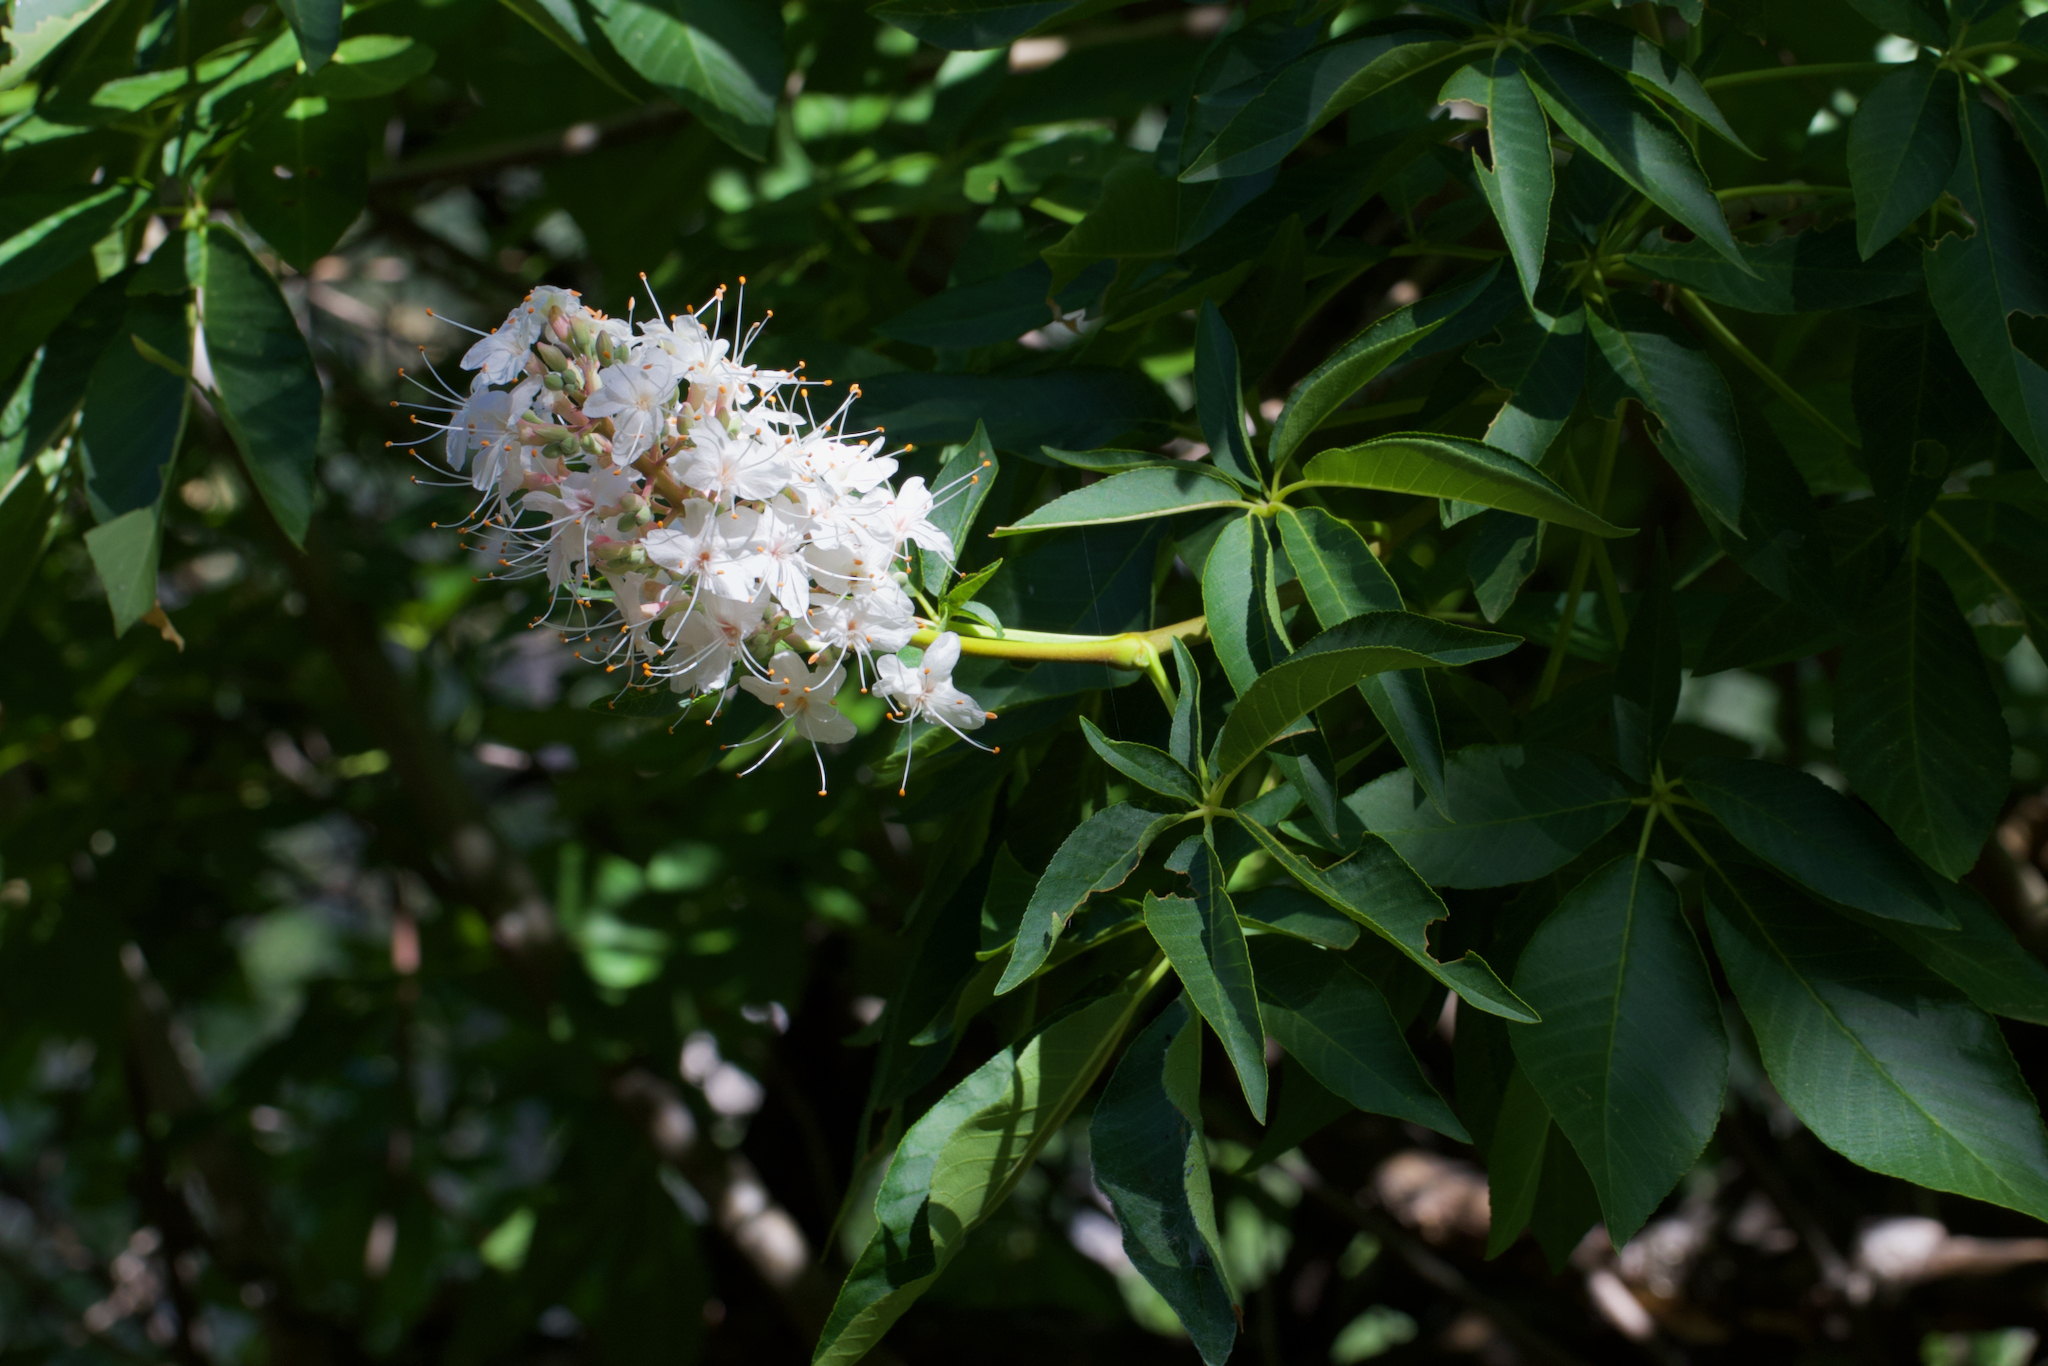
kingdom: Plantae
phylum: Tracheophyta
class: Magnoliopsida
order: Sapindales
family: Sapindaceae
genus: Aesculus
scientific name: Aesculus californica
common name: California buckeye
